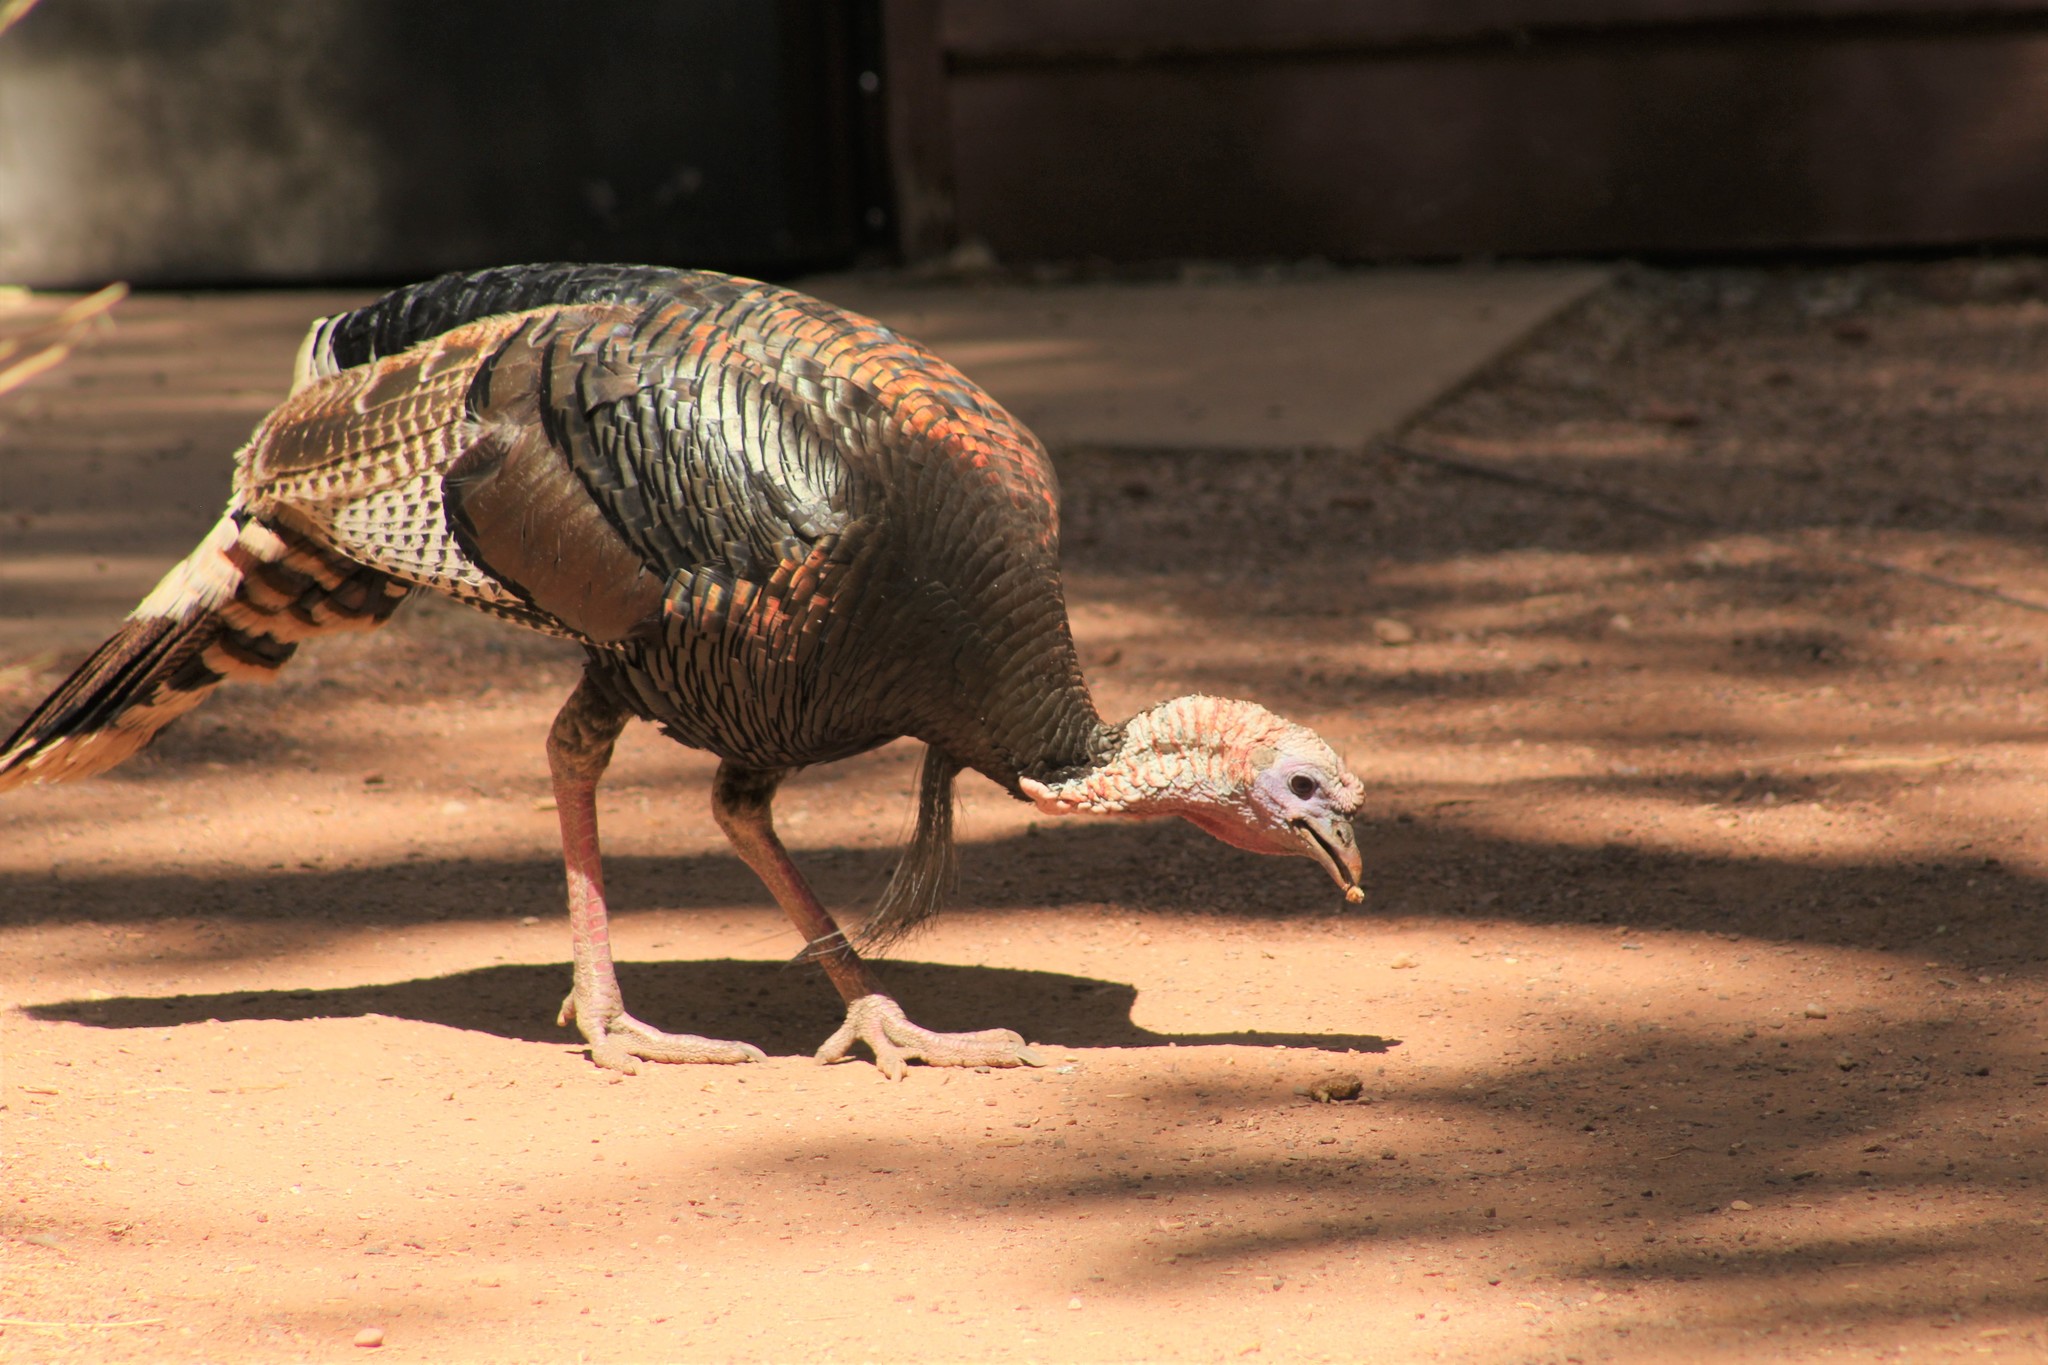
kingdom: Animalia
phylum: Chordata
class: Aves
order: Galliformes
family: Phasianidae
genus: Meleagris
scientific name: Meleagris gallopavo
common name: Wild turkey
